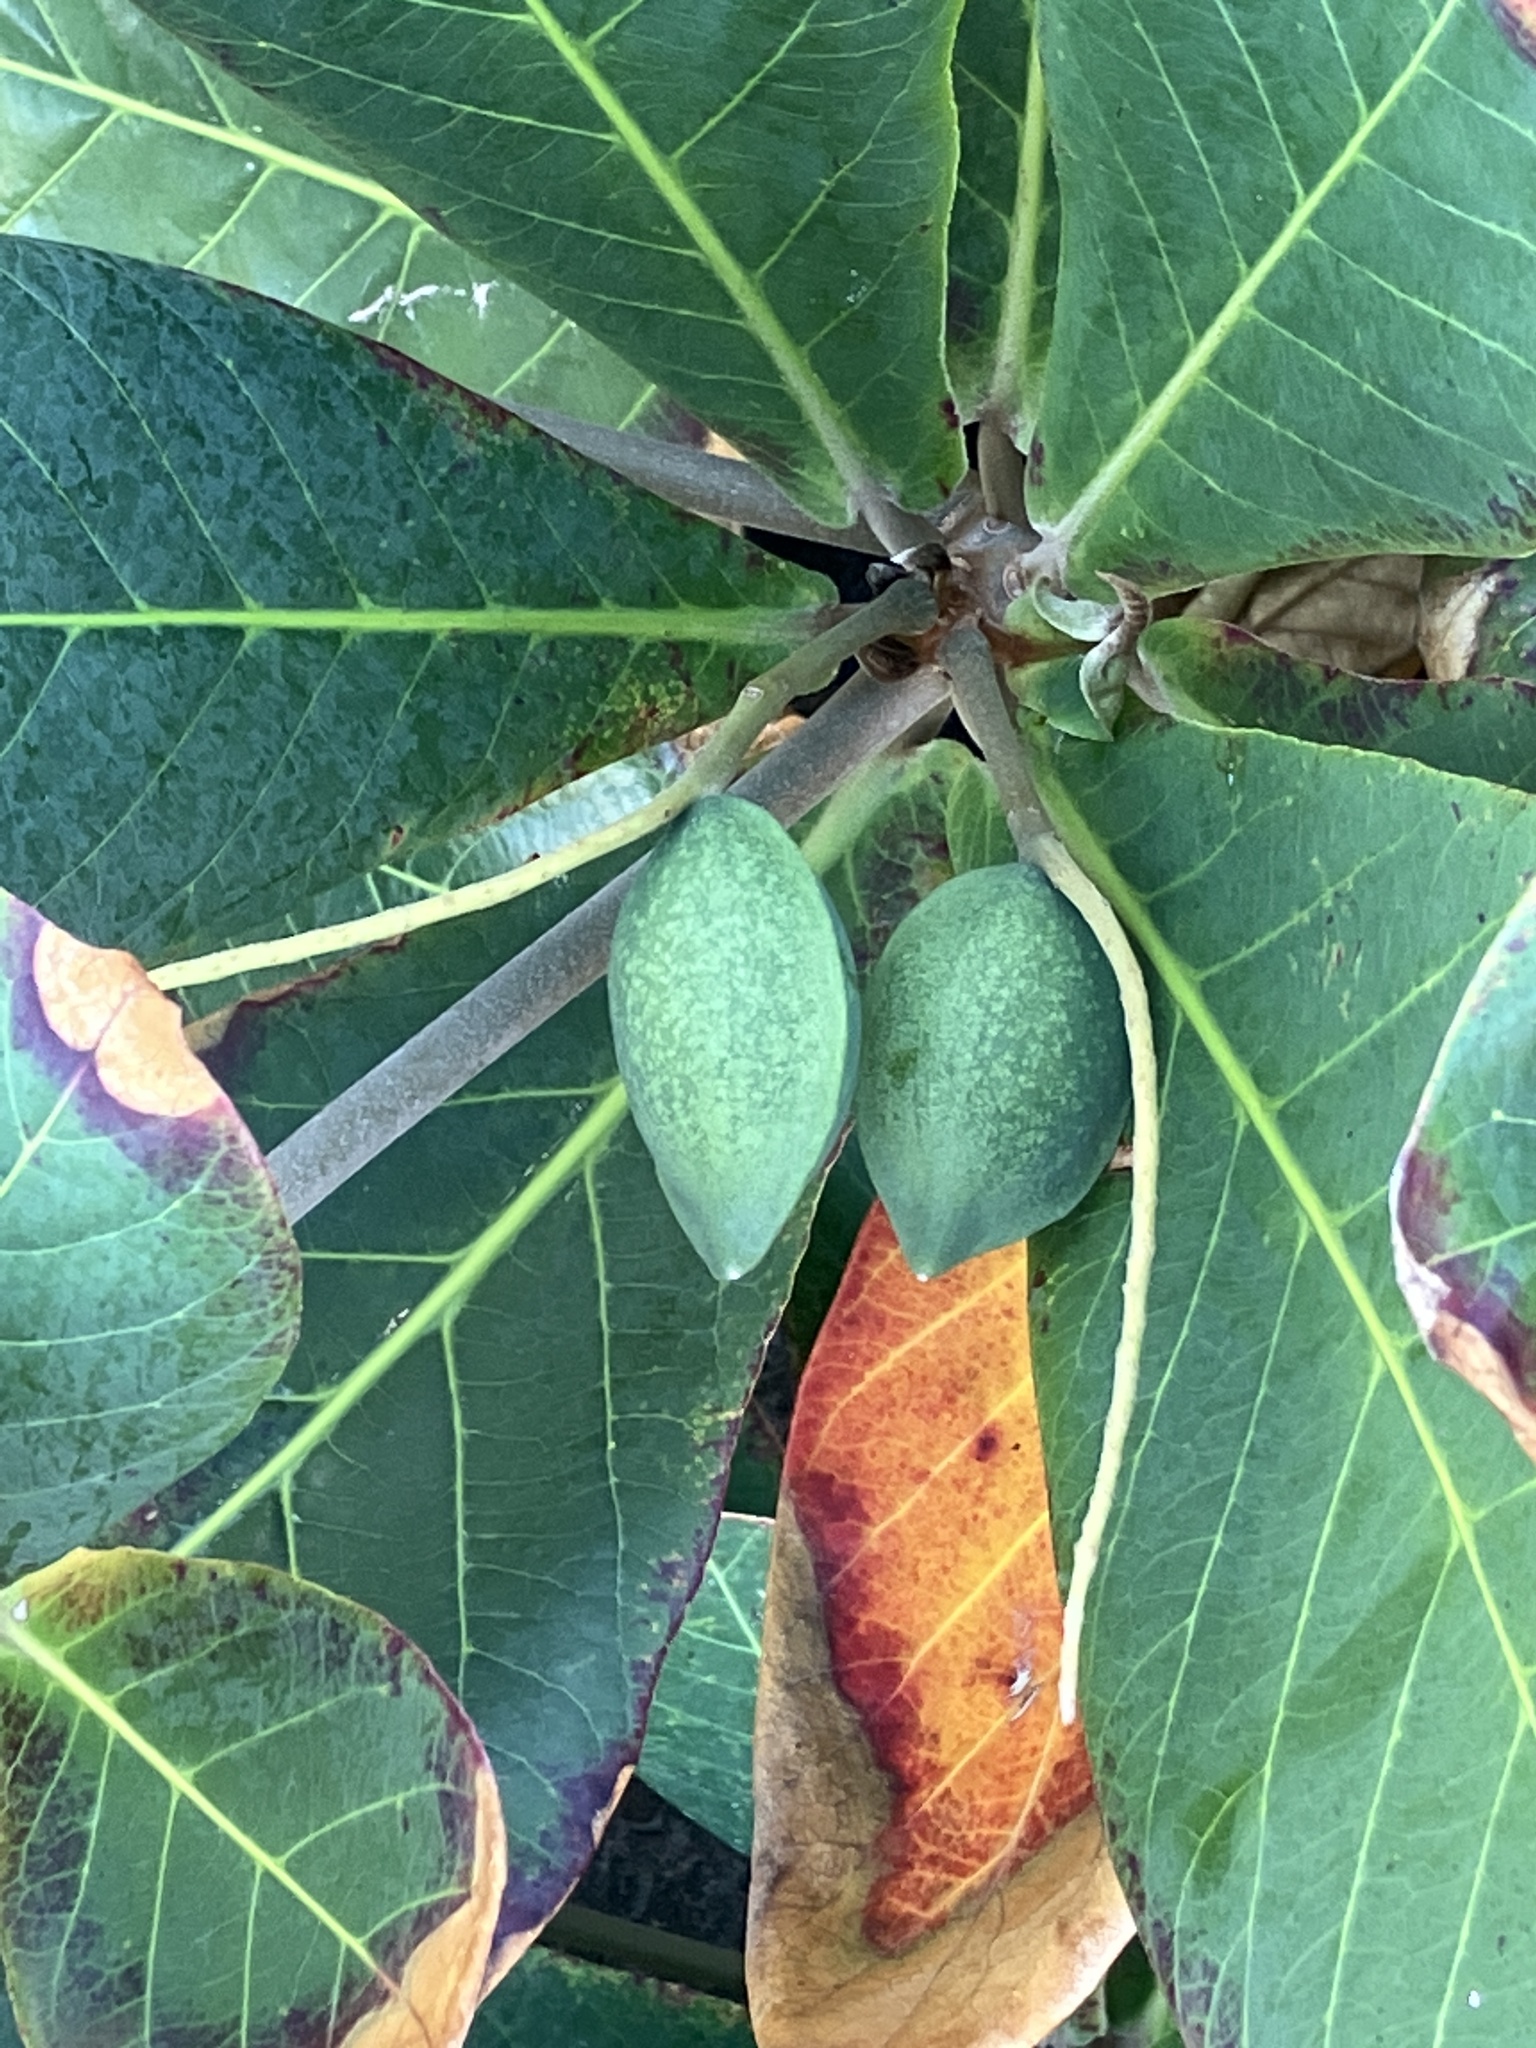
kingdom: Plantae
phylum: Tracheophyta
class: Magnoliopsida
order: Myrtales
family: Combretaceae
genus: Terminalia
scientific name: Terminalia catappa
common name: Tropical almond
